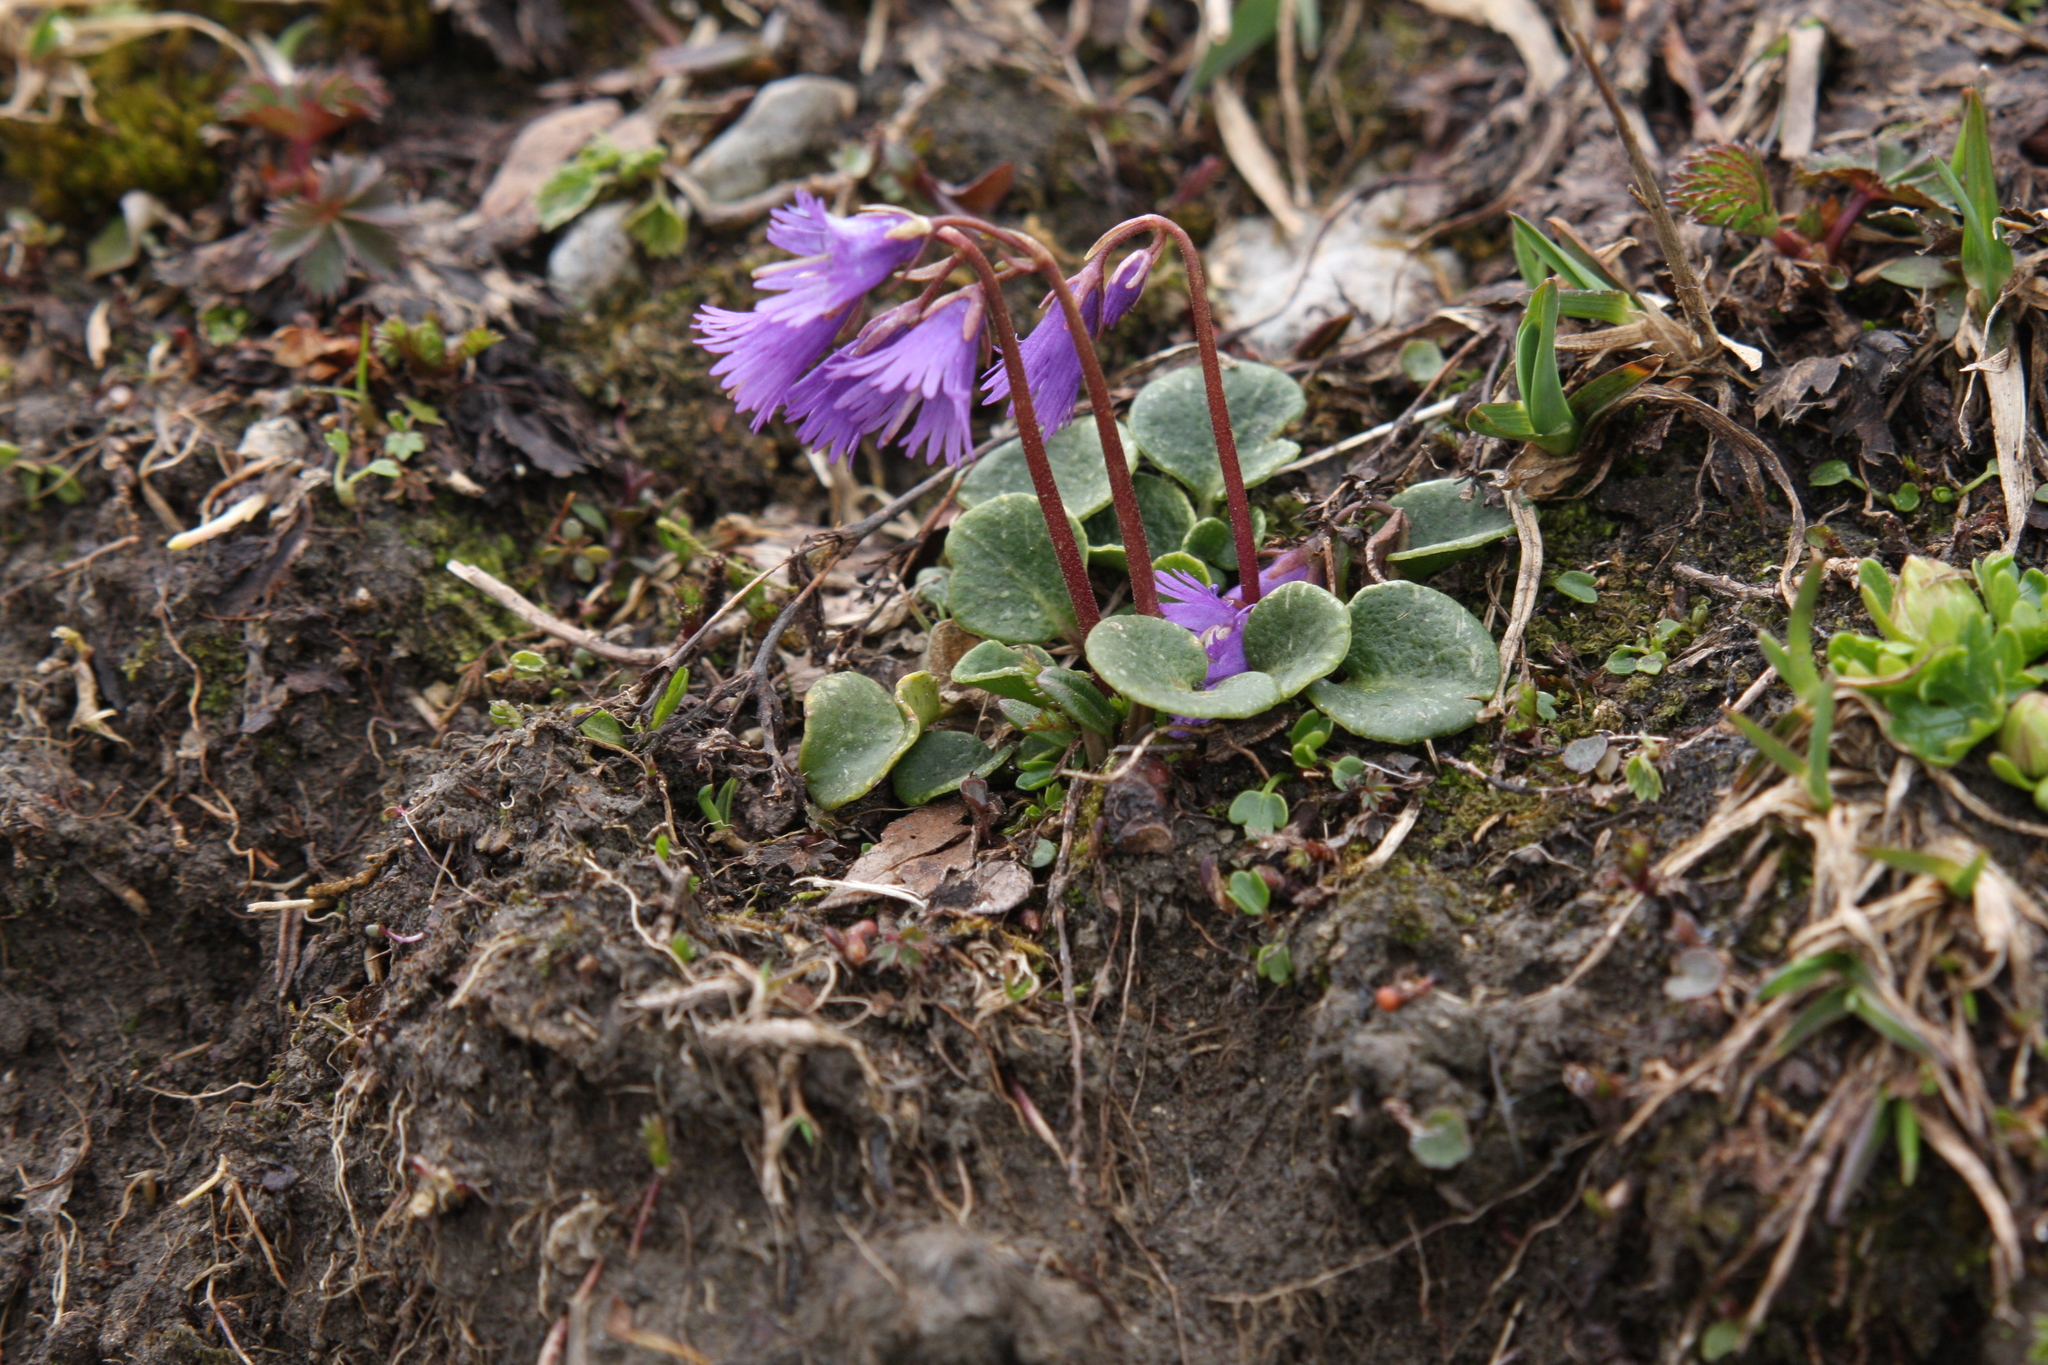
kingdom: Plantae
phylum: Tracheophyta
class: Magnoliopsida
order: Ericales
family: Primulaceae
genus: Soldanella
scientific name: Soldanella alpina
